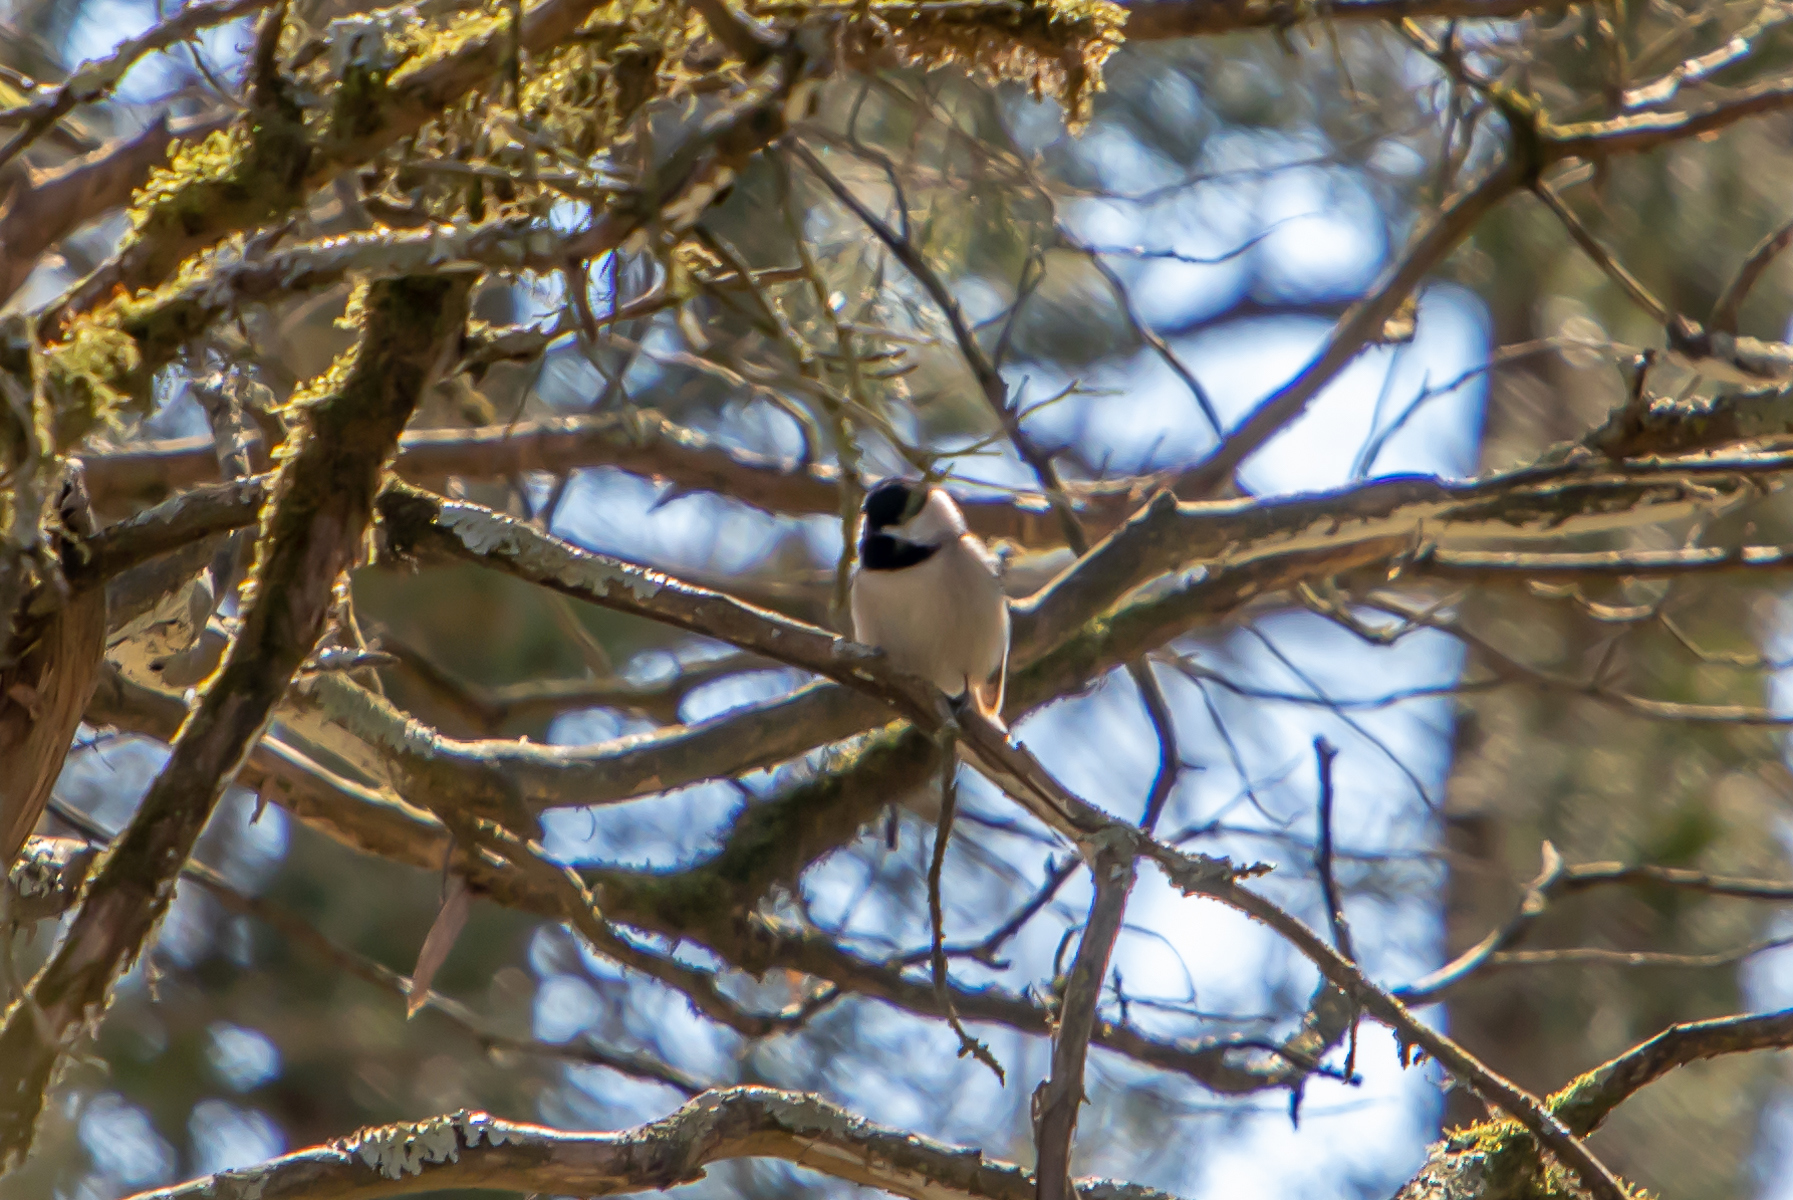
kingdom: Animalia
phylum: Chordata
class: Aves
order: Passeriformes
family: Paridae
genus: Poecile
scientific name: Poecile carolinensis
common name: Carolina chickadee
